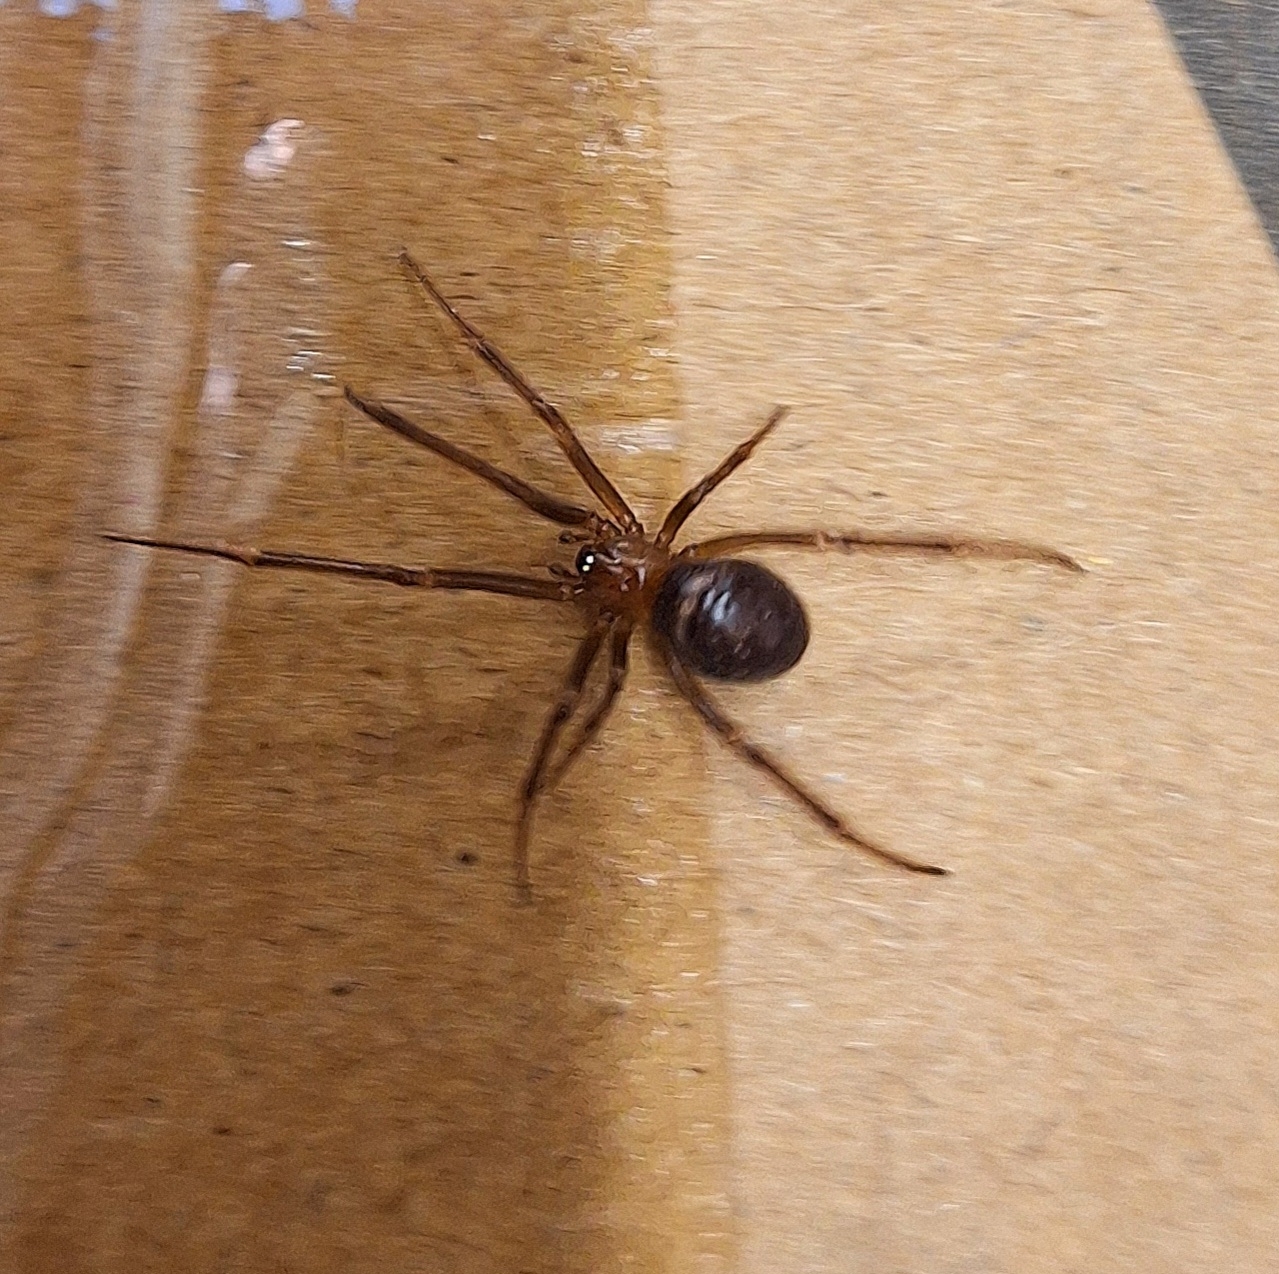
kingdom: Animalia
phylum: Arthropoda
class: Arachnida
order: Araneae
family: Theridiidae
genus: Steatoda
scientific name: Steatoda grossa
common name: False black widow
